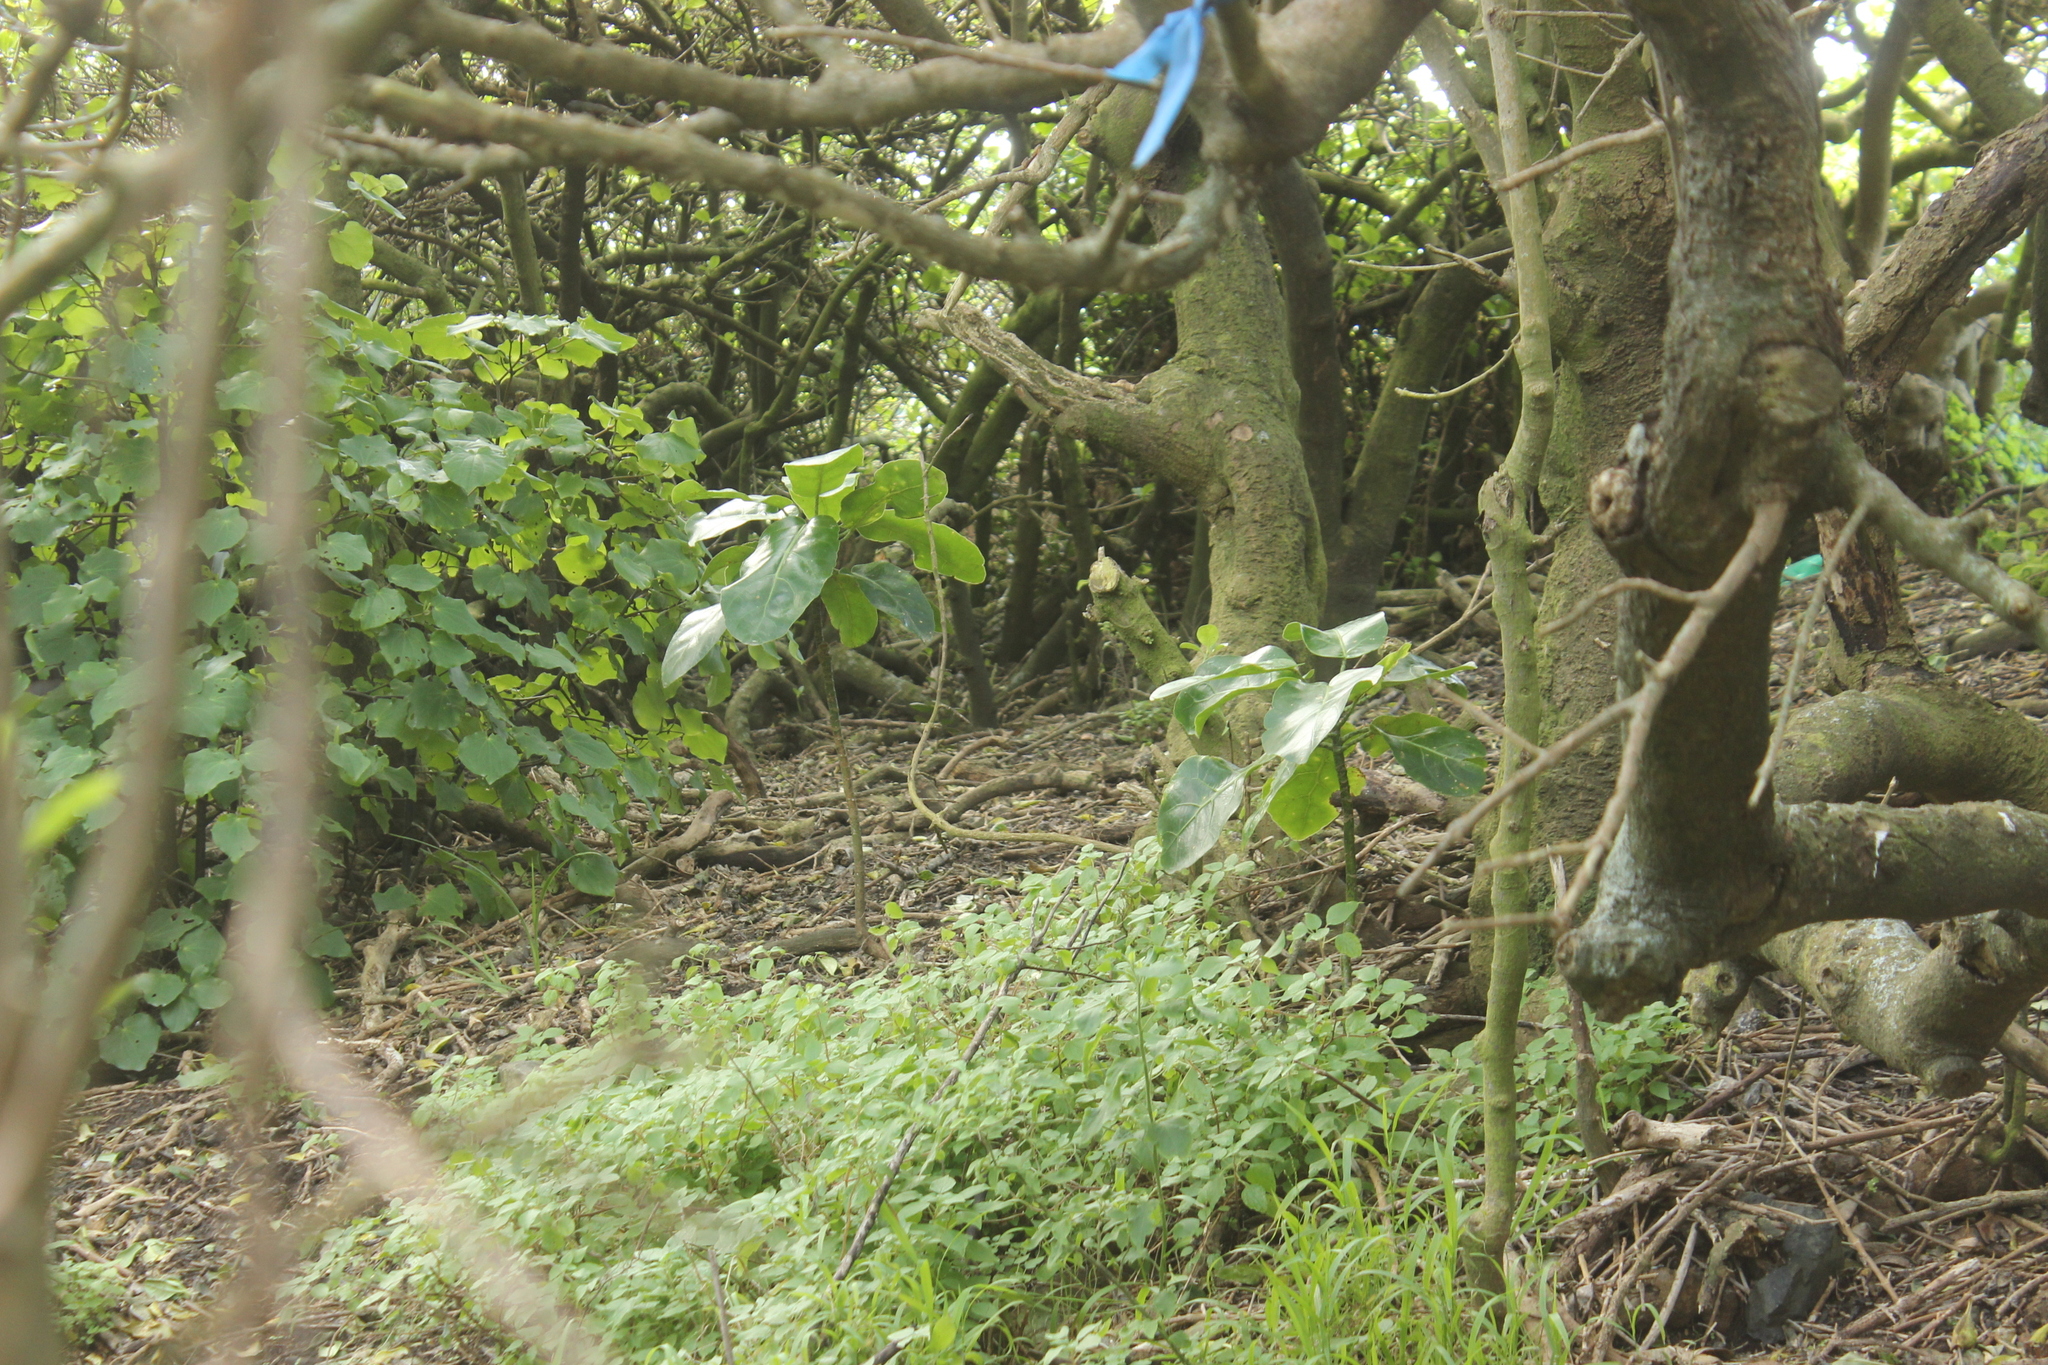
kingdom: Plantae
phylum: Tracheophyta
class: Magnoliopsida
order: Apiales
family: Araliaceae
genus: Meryta
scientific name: Meryta sinclairii
